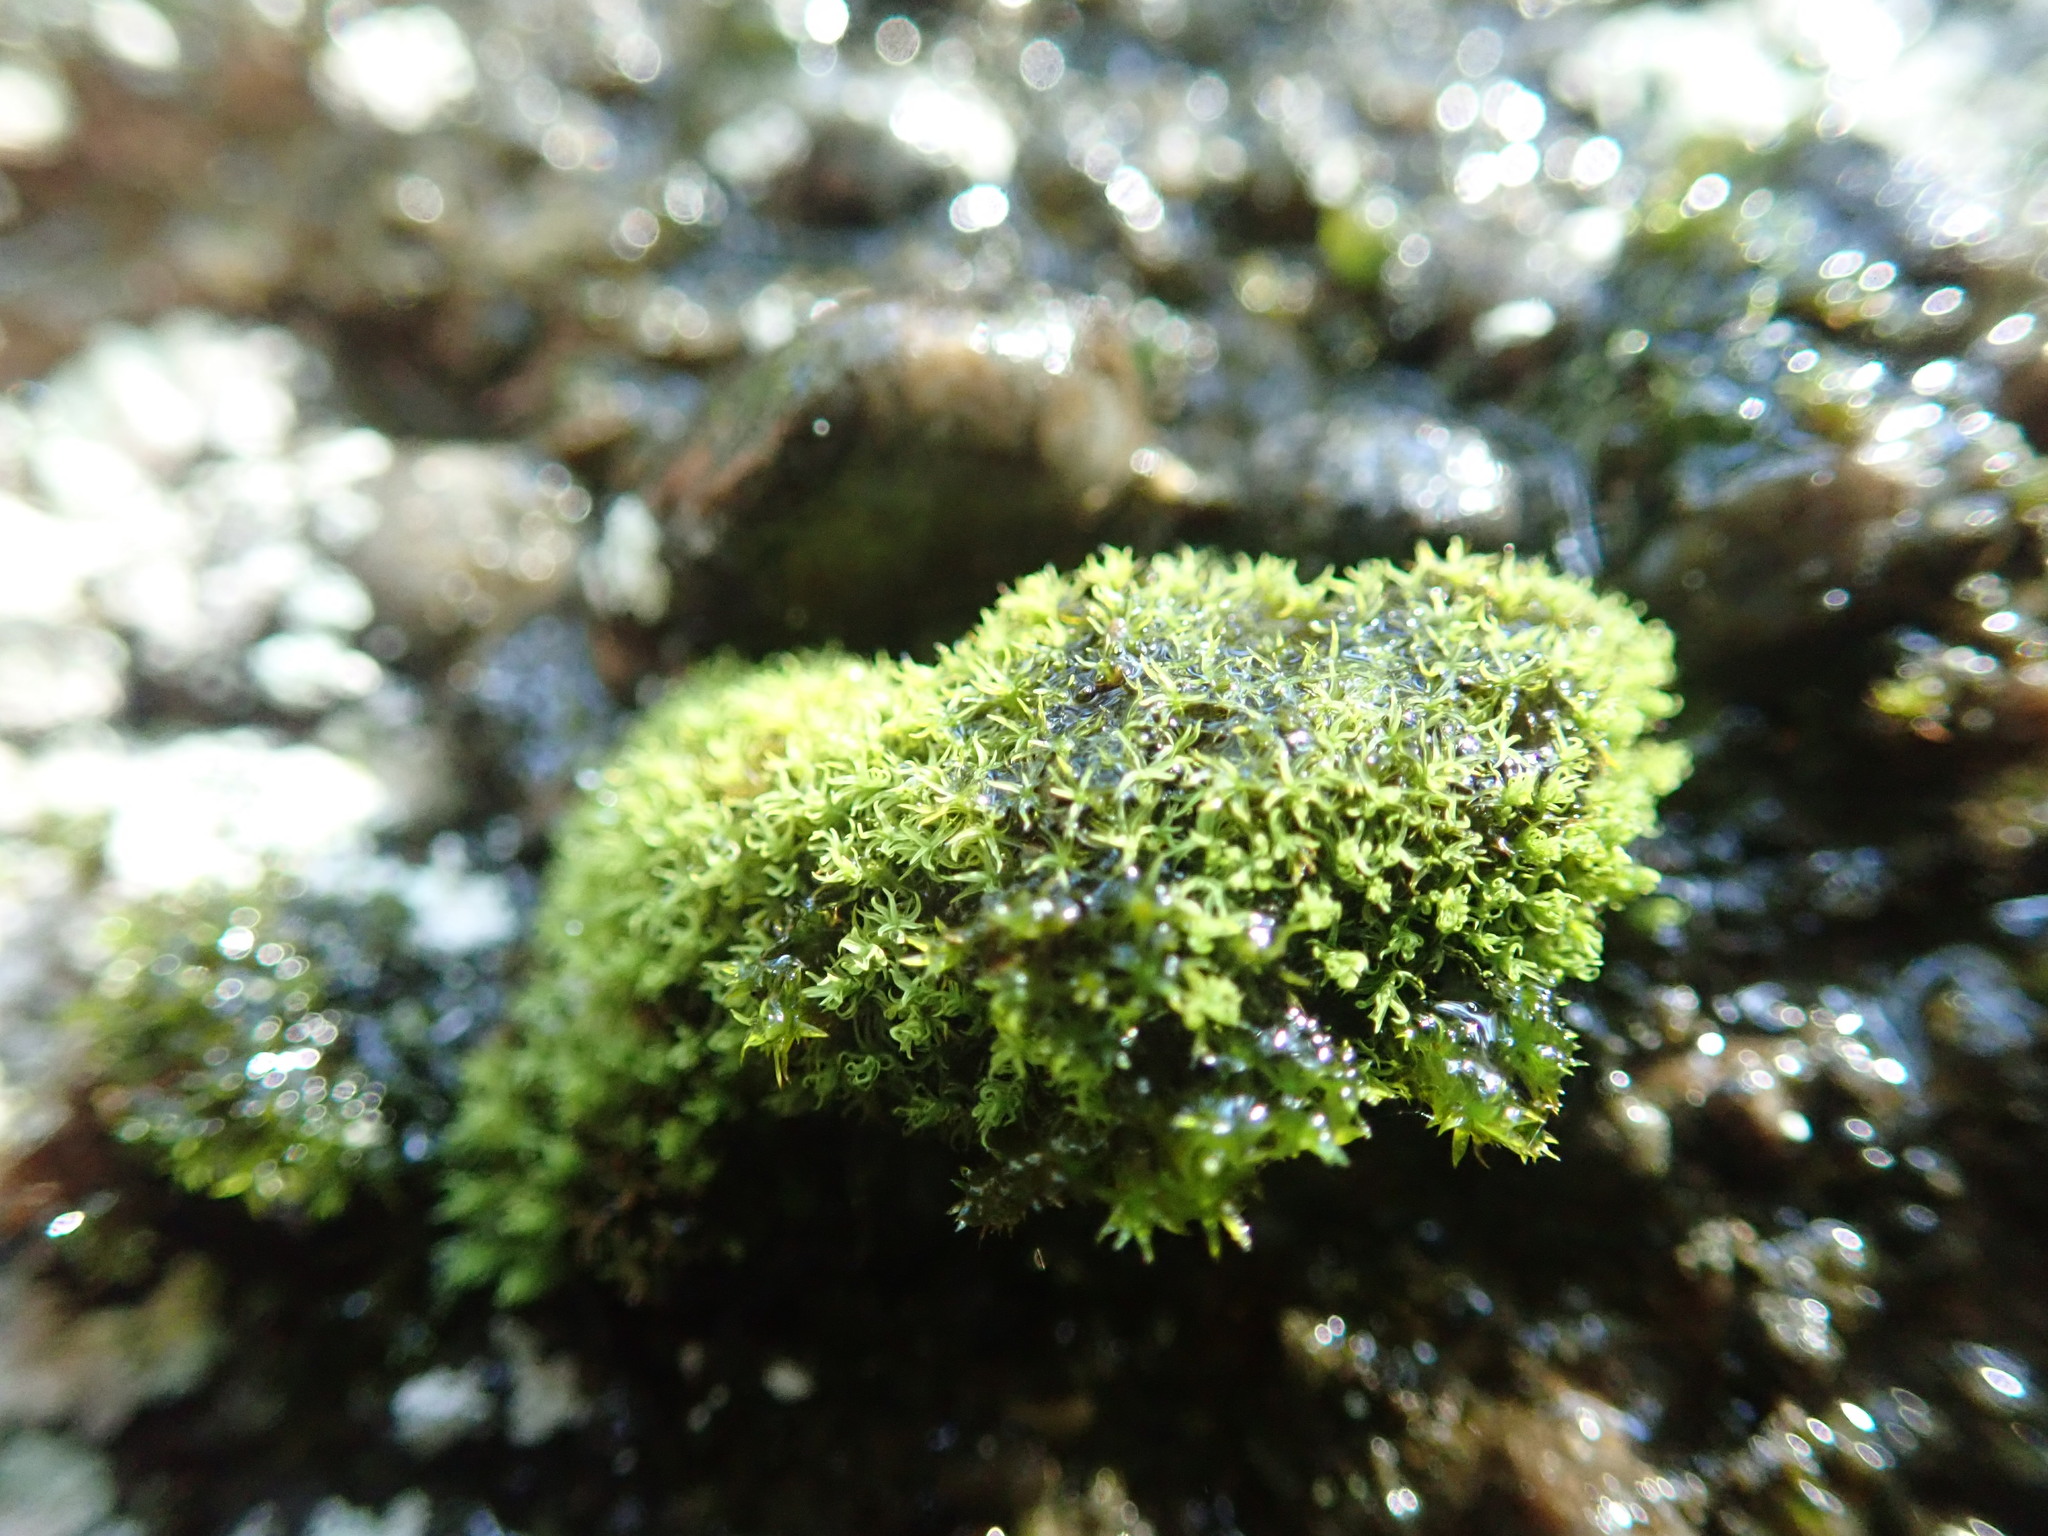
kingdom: Plantae
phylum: Bryophyta
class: Bryopsida
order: Orthotrichales
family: Orthotrichaceae
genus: Zygodon
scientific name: Zygodon rupestris
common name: Park yoke moss
